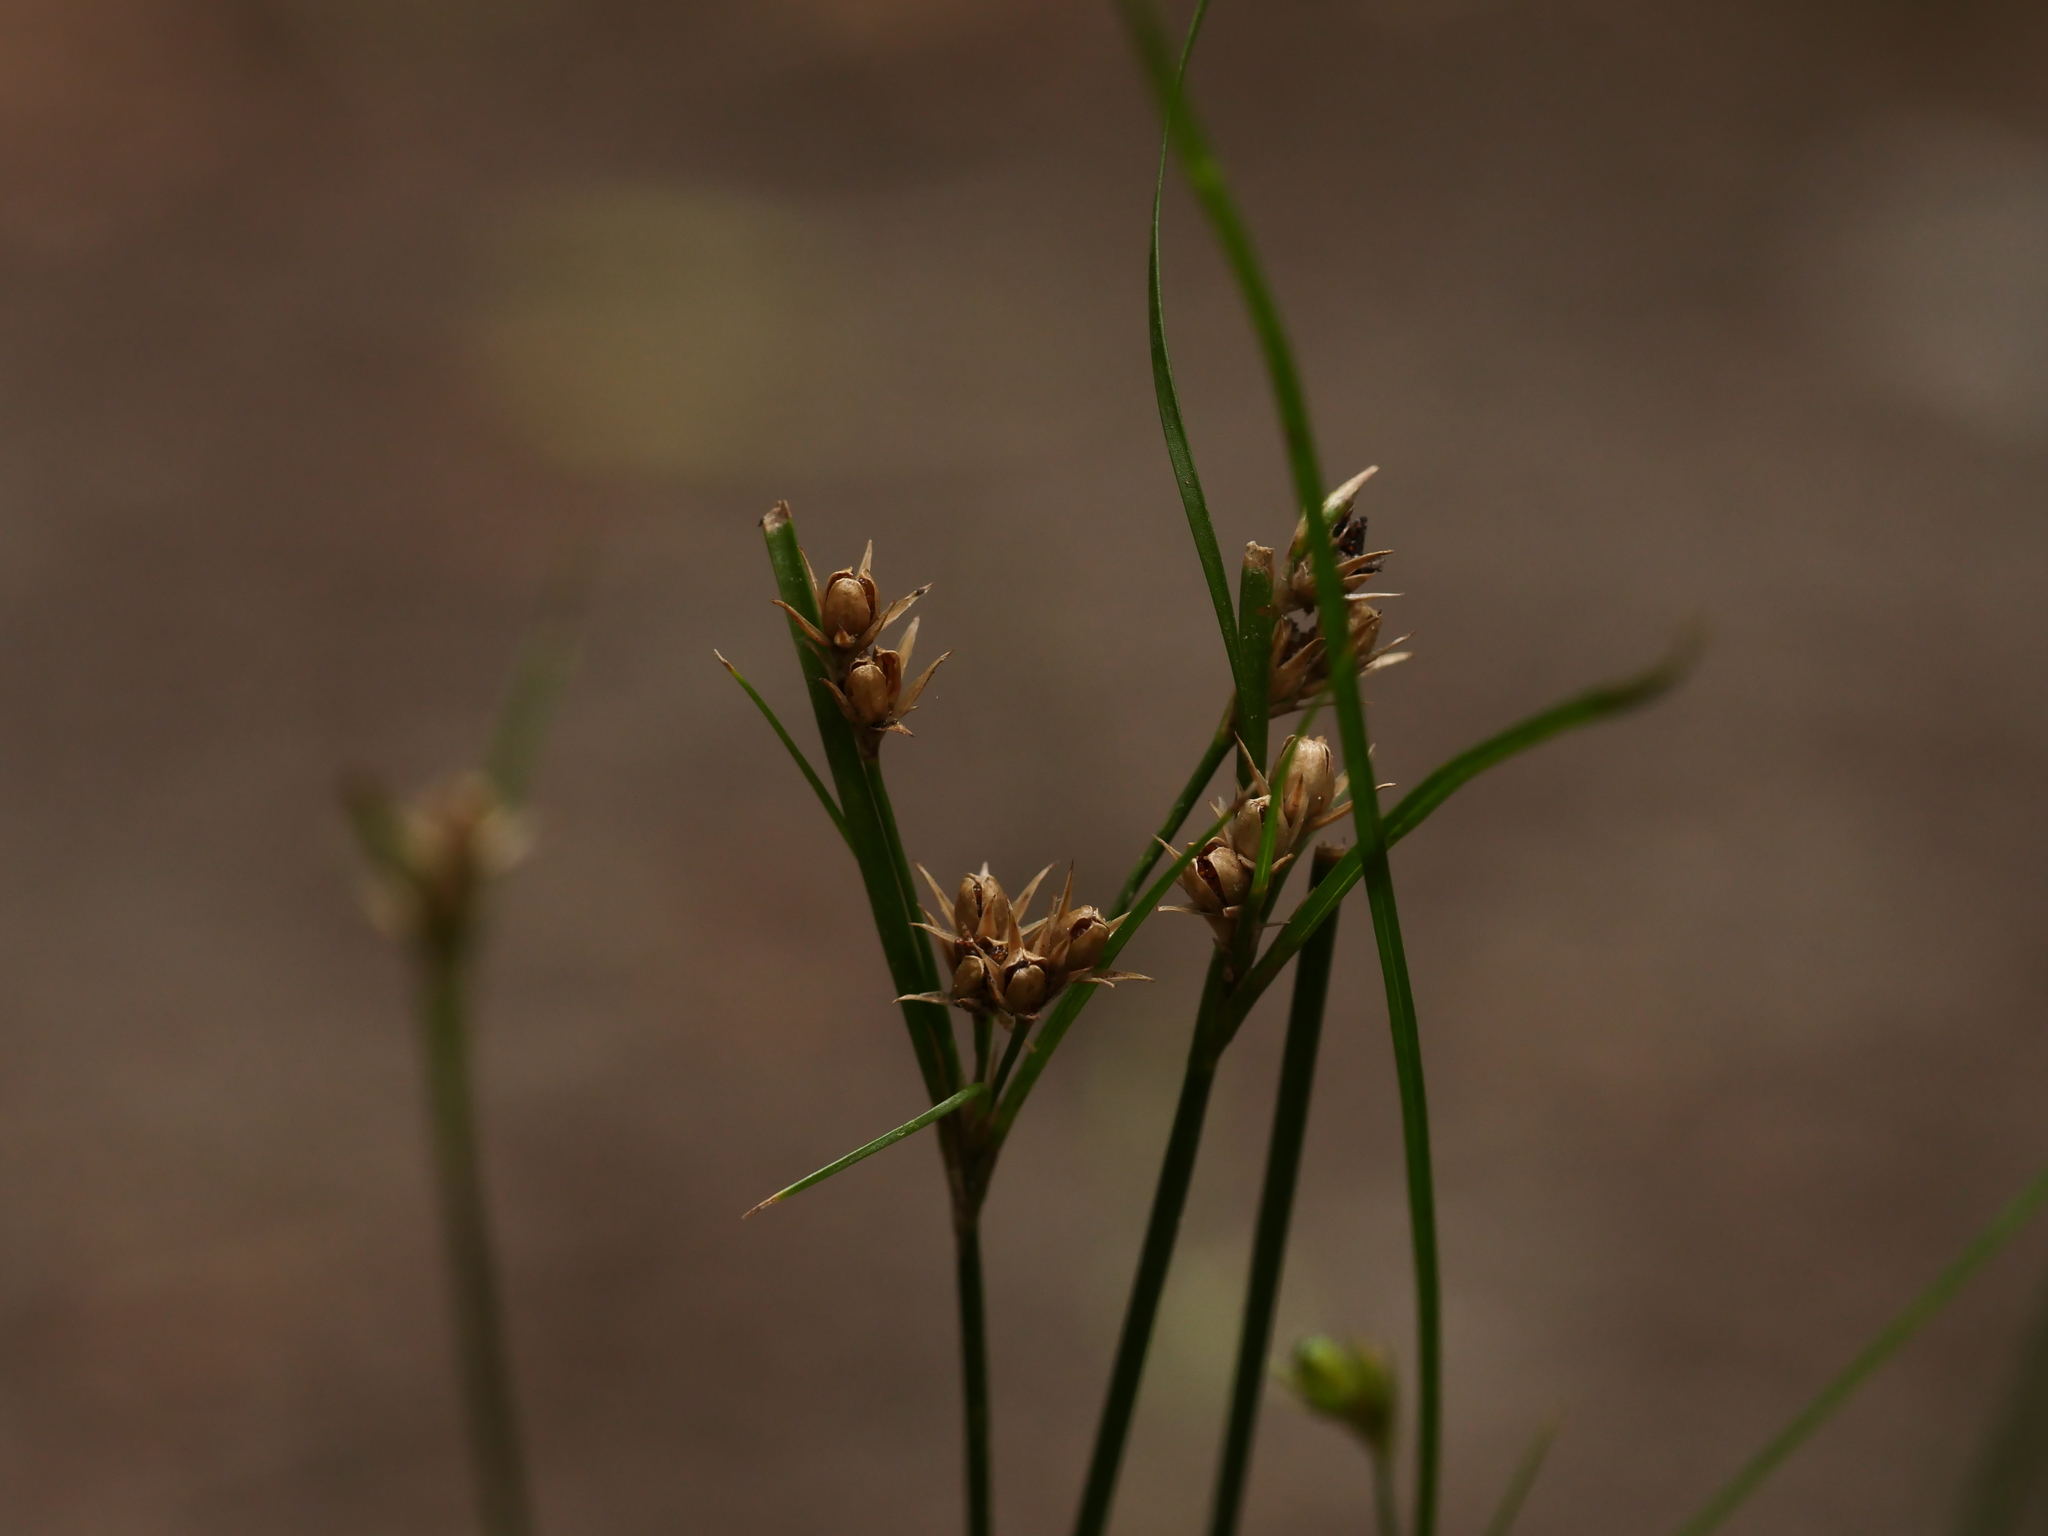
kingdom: Plantae
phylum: Tracheophyta
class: Liliopsida
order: Poales
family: Juncaceae
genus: Juncus
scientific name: Juncus tenuis
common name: Slender rush
